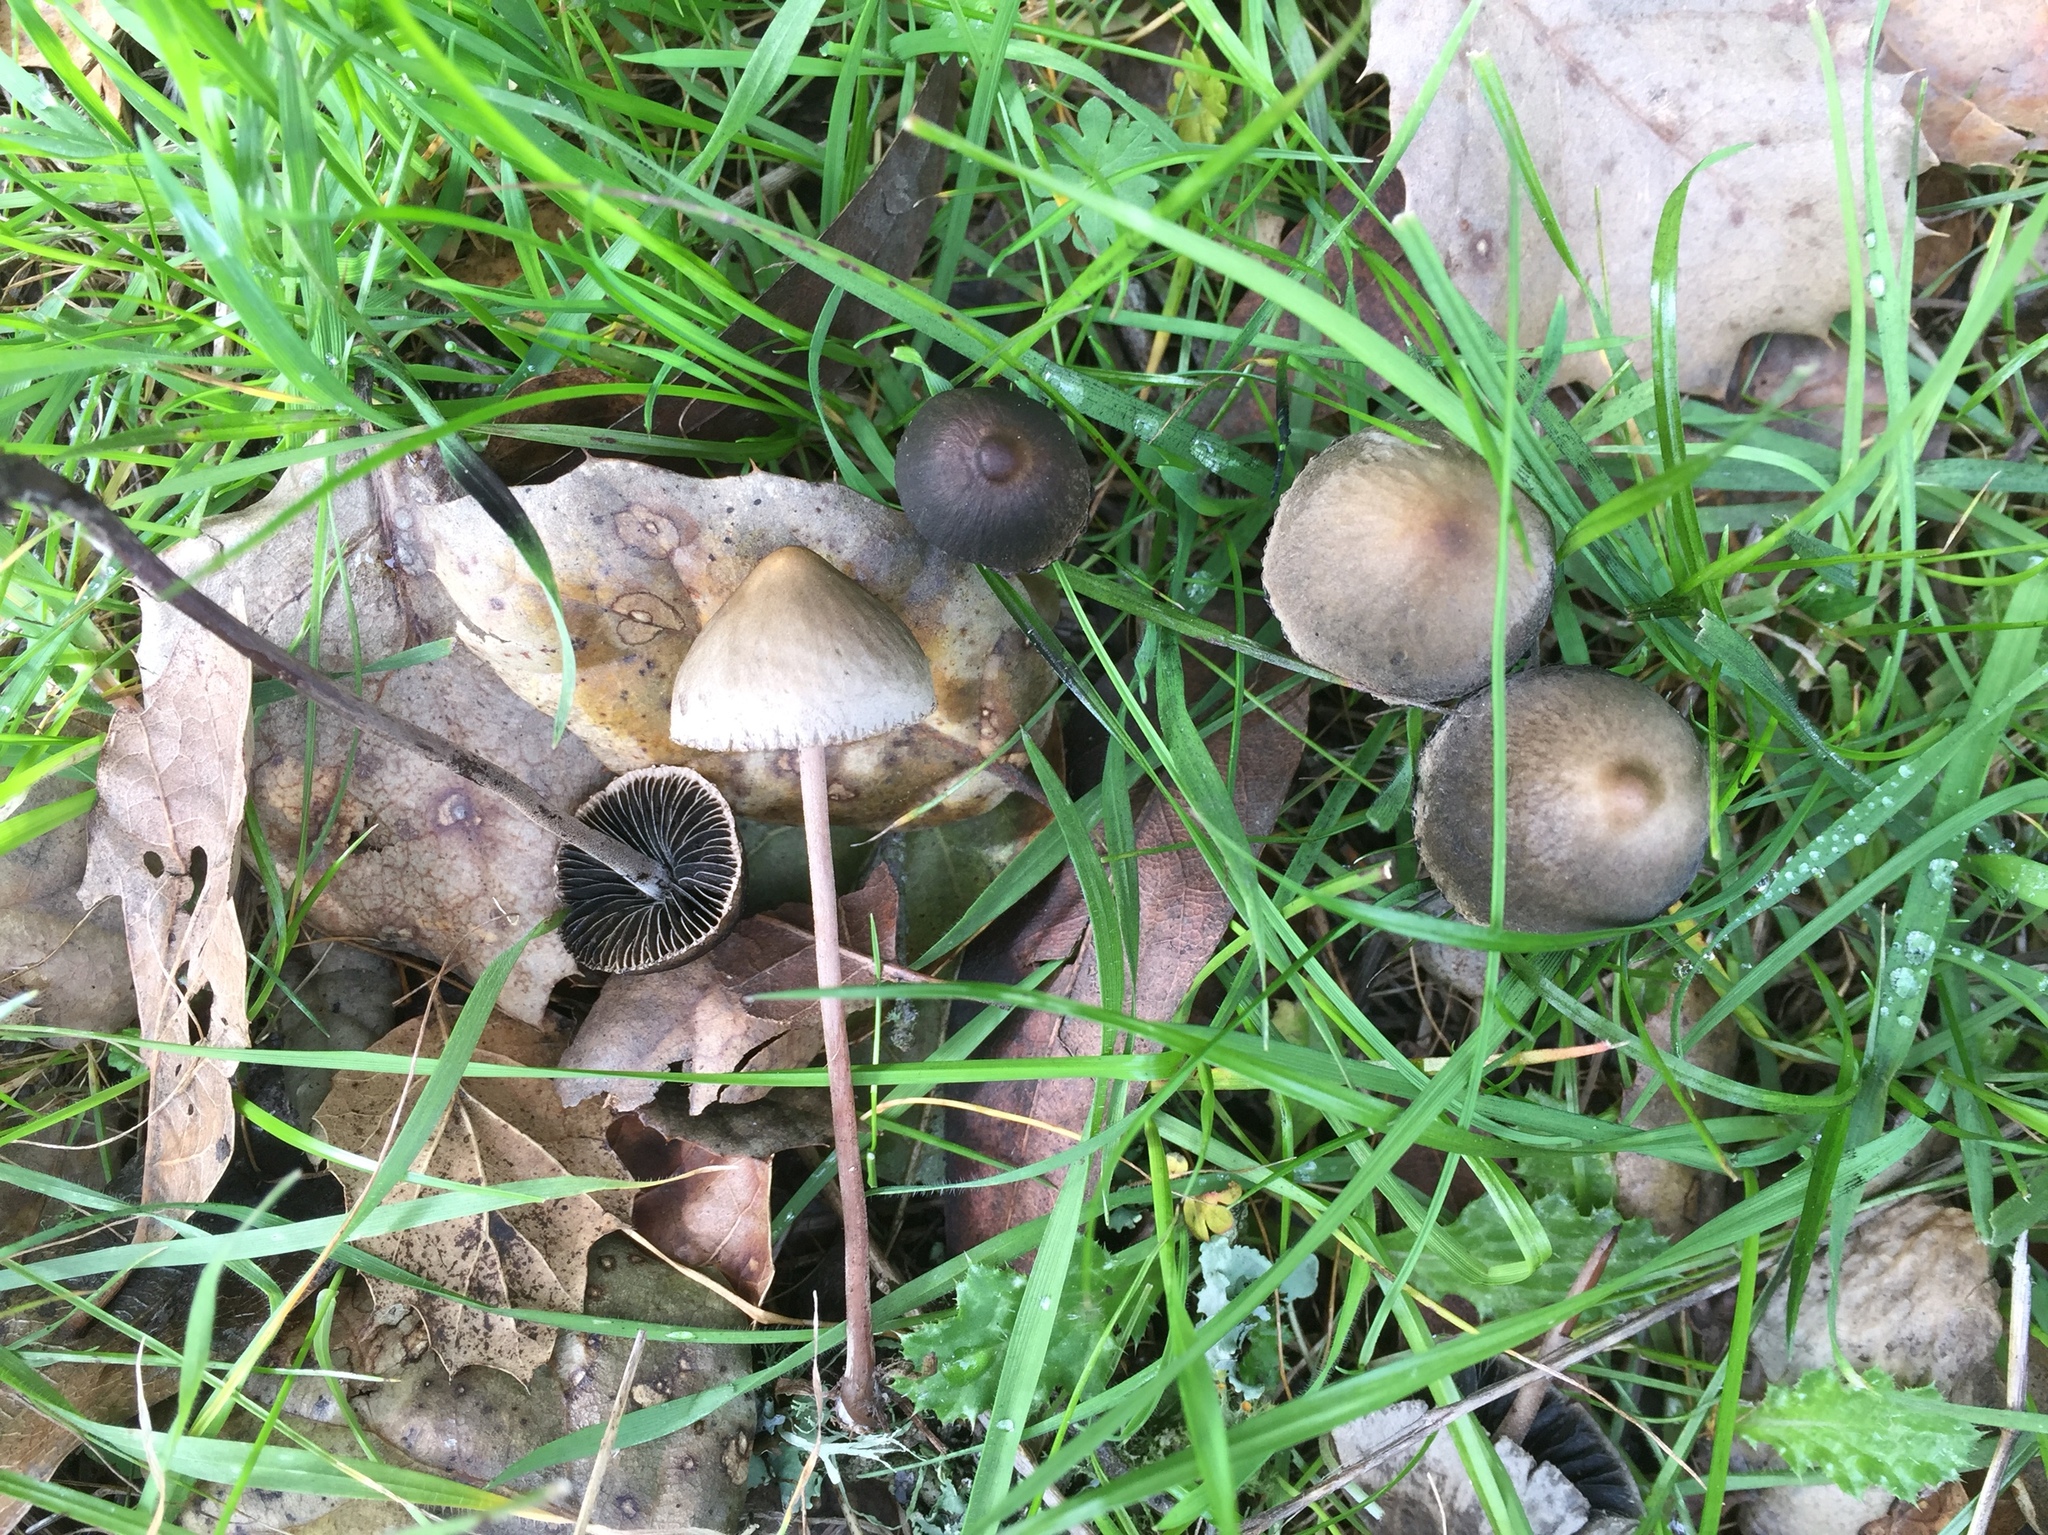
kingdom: Fungi
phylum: Basidiomycota
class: Agaricomycetes
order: Agaricales
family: Bolbitiaceae
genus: Panaeolus
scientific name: Panaeolus papilionaceus
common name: Petticoat mottlegill
